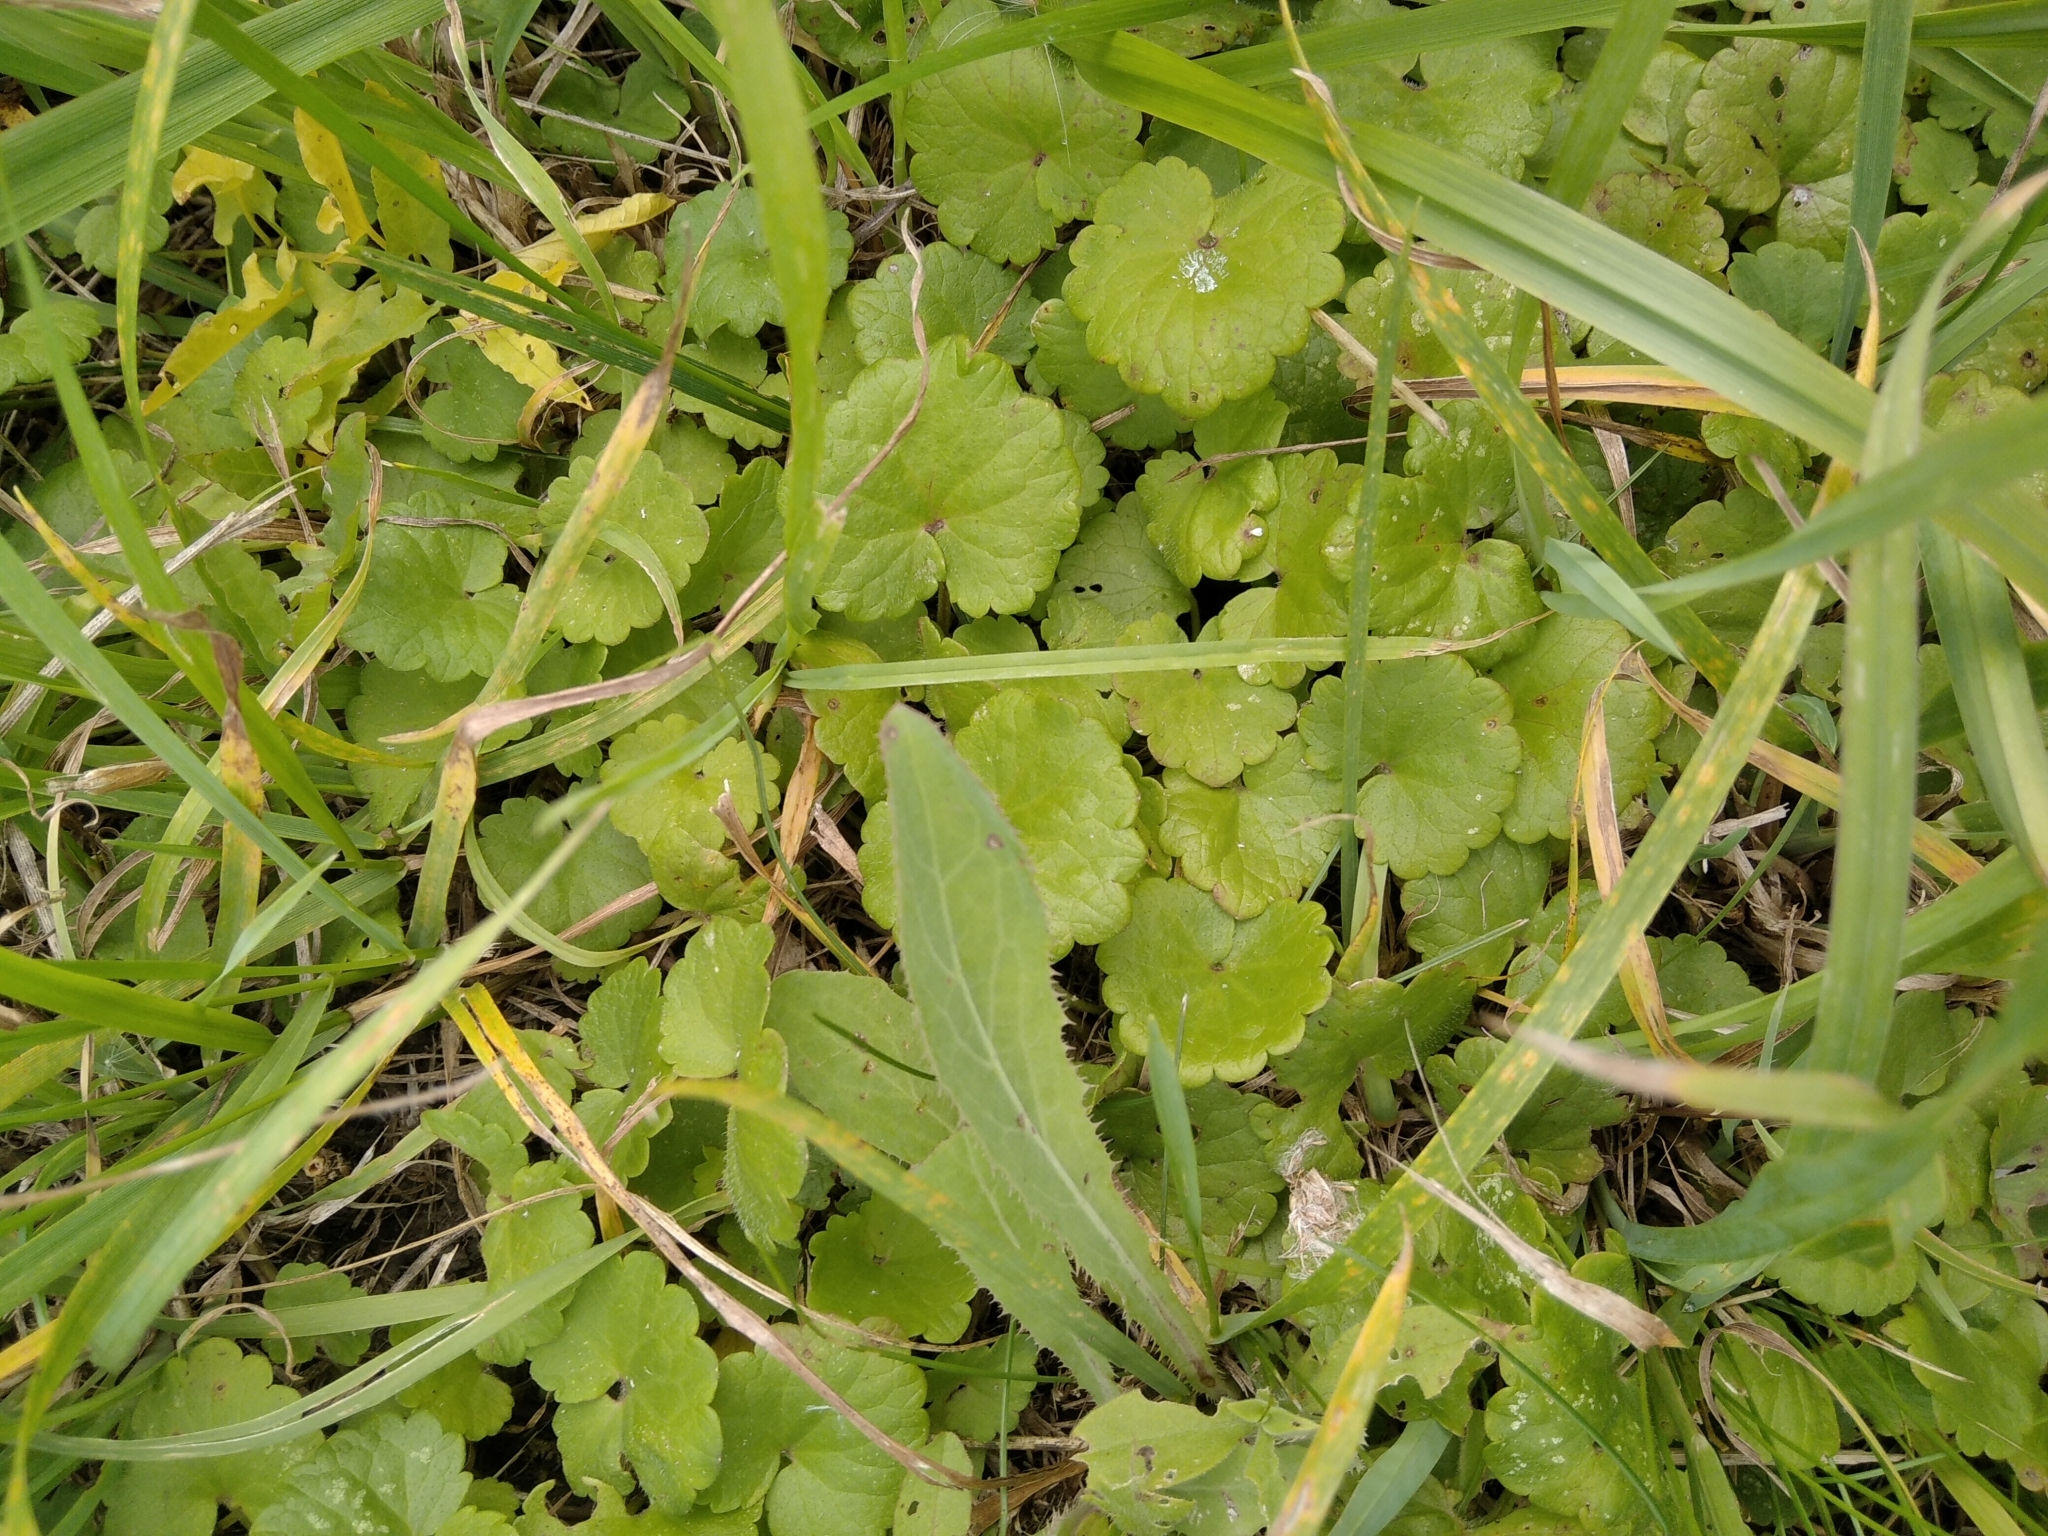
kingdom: Plantae
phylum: Tracheophyta
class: Magnoliopsida
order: Lamiales
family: Lamiaceae
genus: Glechoma
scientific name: Glechoma hederacea
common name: Ground ivy
